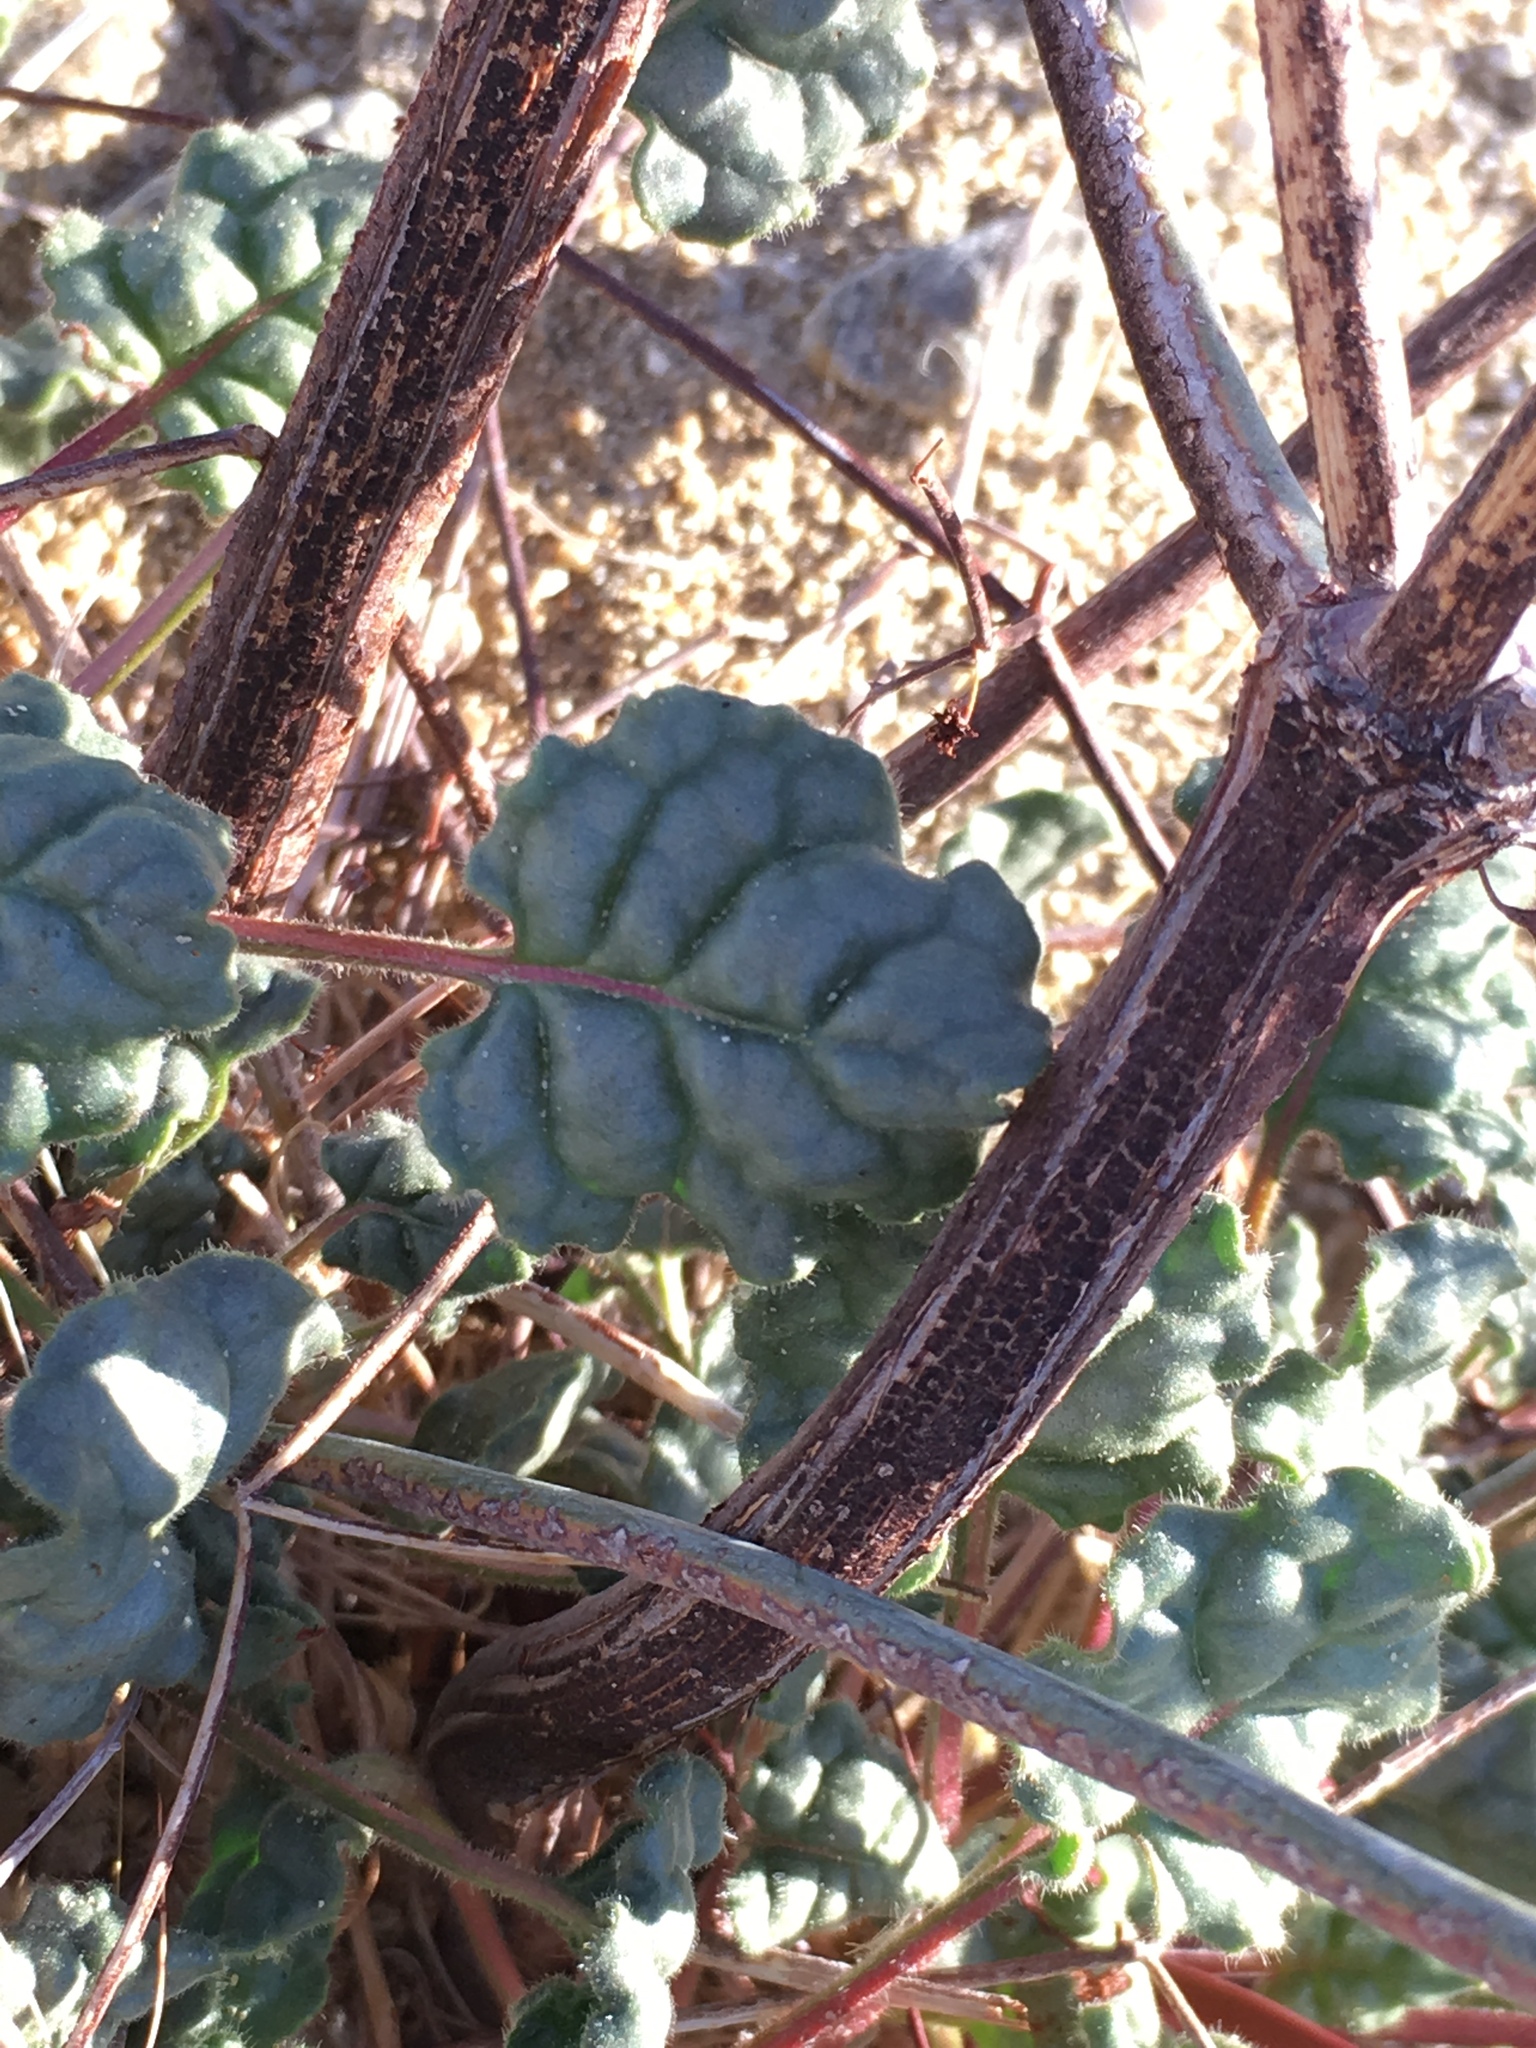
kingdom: Plantae
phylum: Tracheophyta
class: Magnoliopsida
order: Caryophyllales
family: Polygonaceae
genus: Eriogonum
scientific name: Eriogonum inflatum
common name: Desert trumpet
